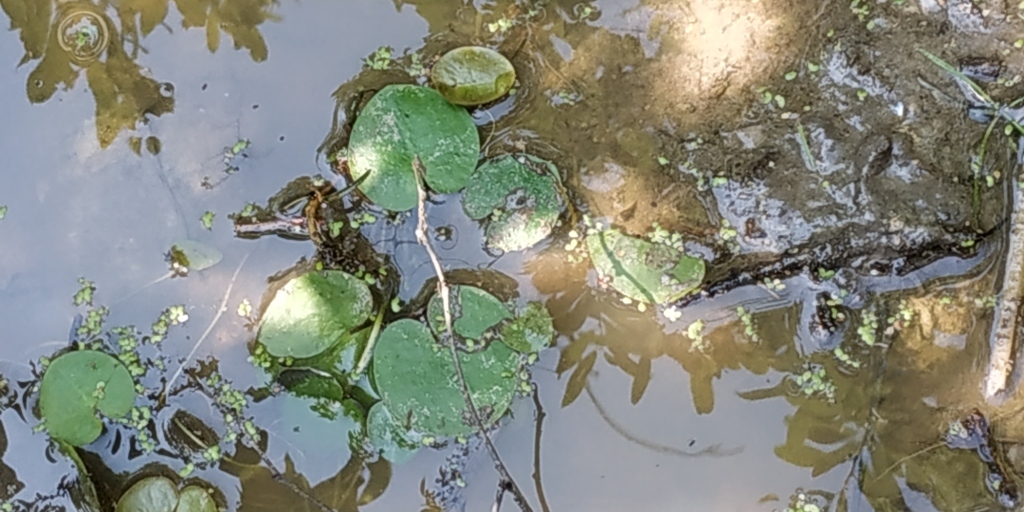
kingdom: Plantae
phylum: Tracheophyta
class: Liliopsida
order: Alismatales
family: Hydrocharitaceae
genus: Hydrocharis
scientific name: Hydrocharis morsus-ranae
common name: Frogbit
